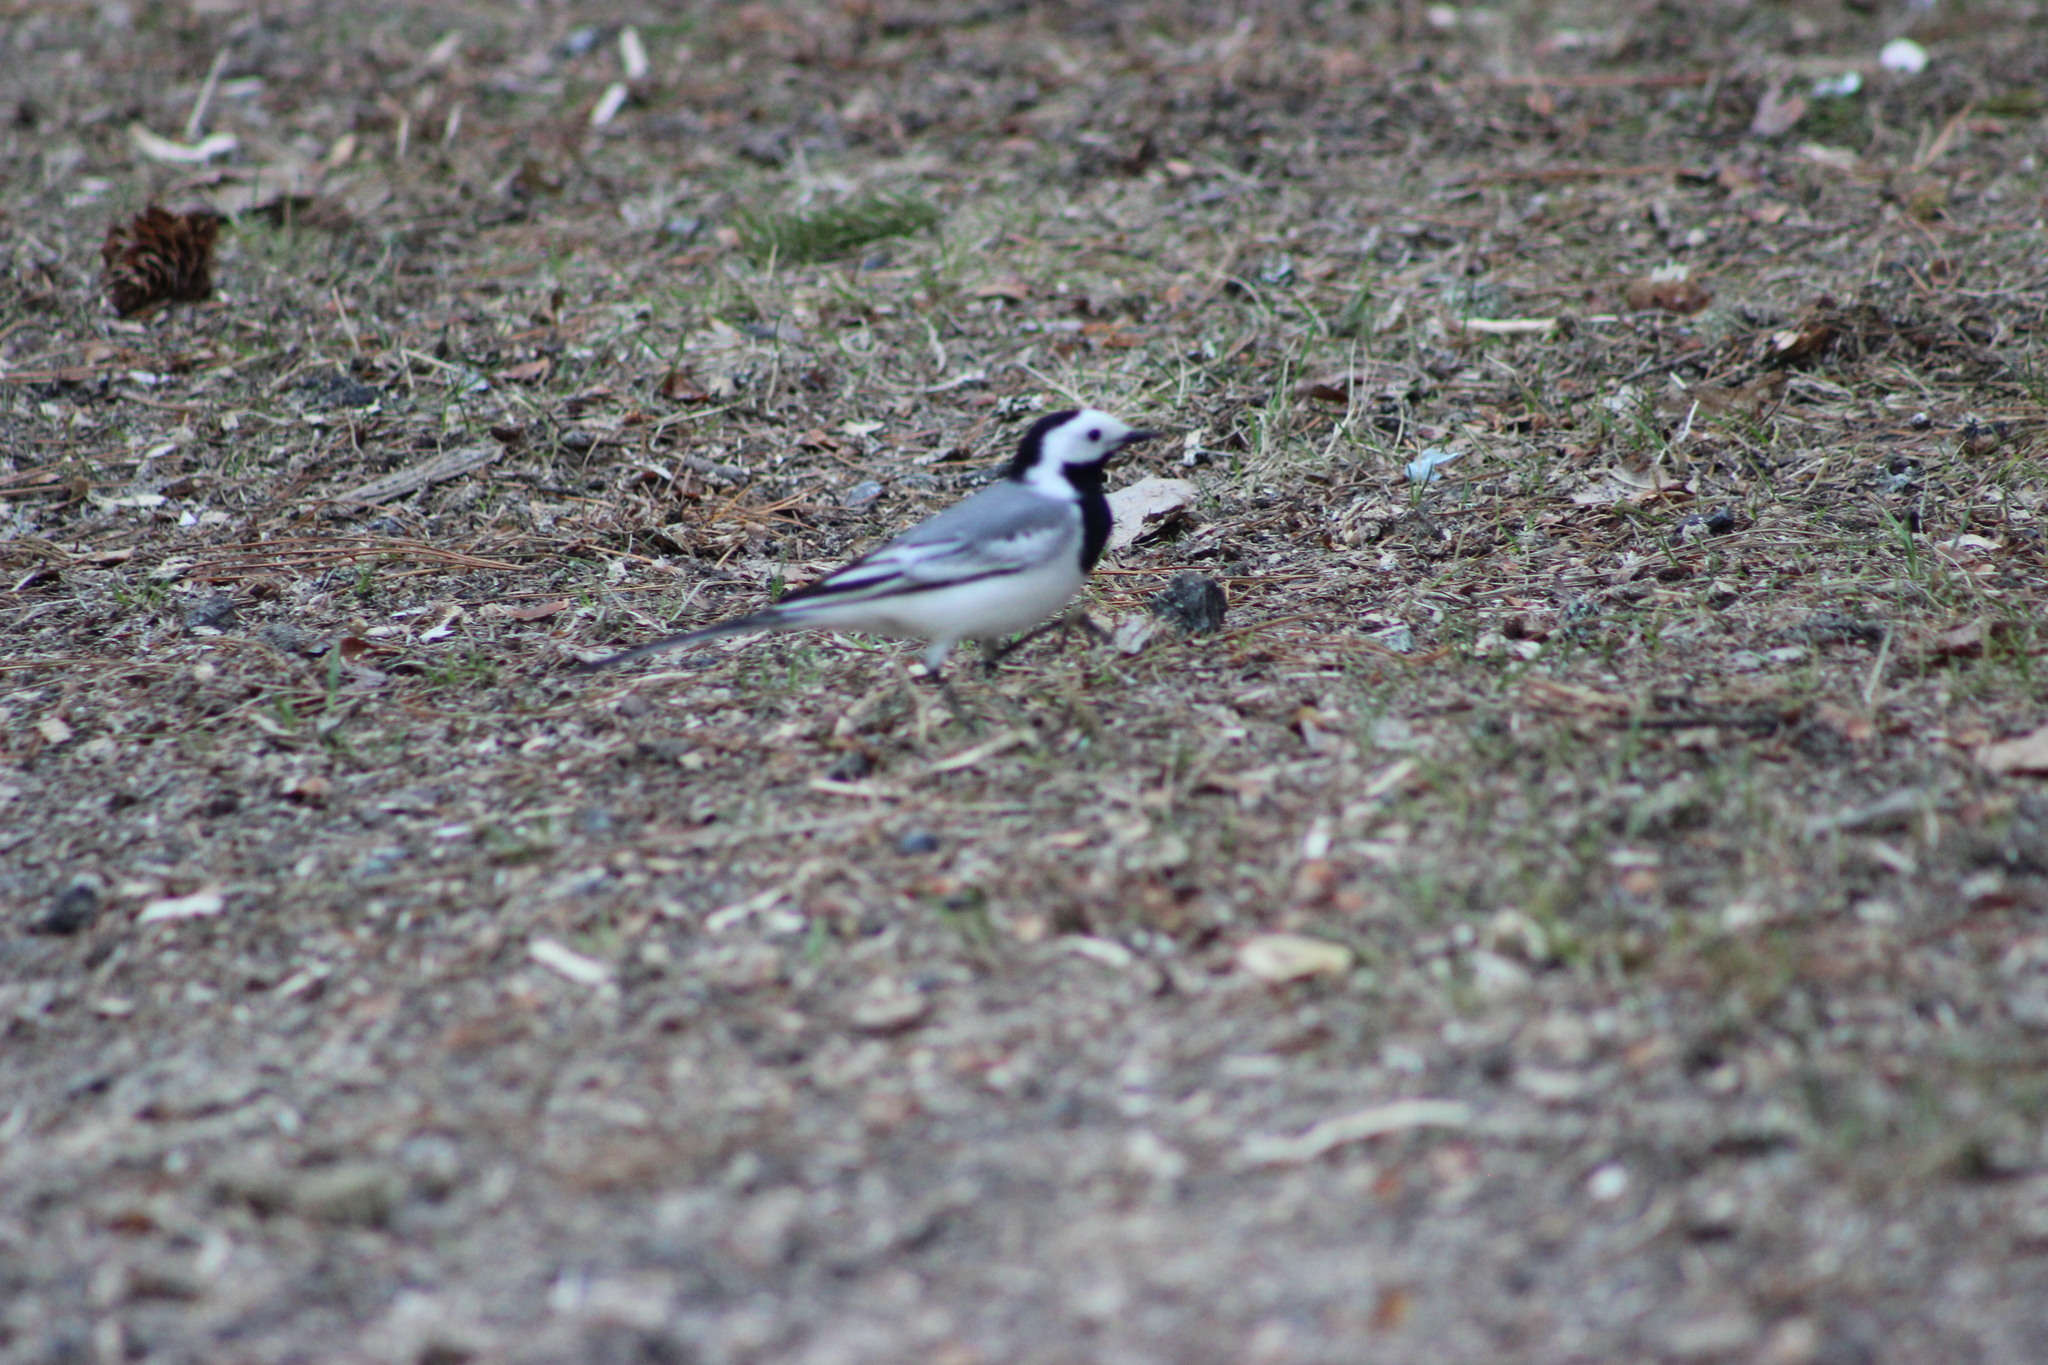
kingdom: Animalia
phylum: Chordata
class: Aves
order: Passeriformes
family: Motacillidae
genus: Motacilla
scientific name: Motacilla alba
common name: White wagtail
